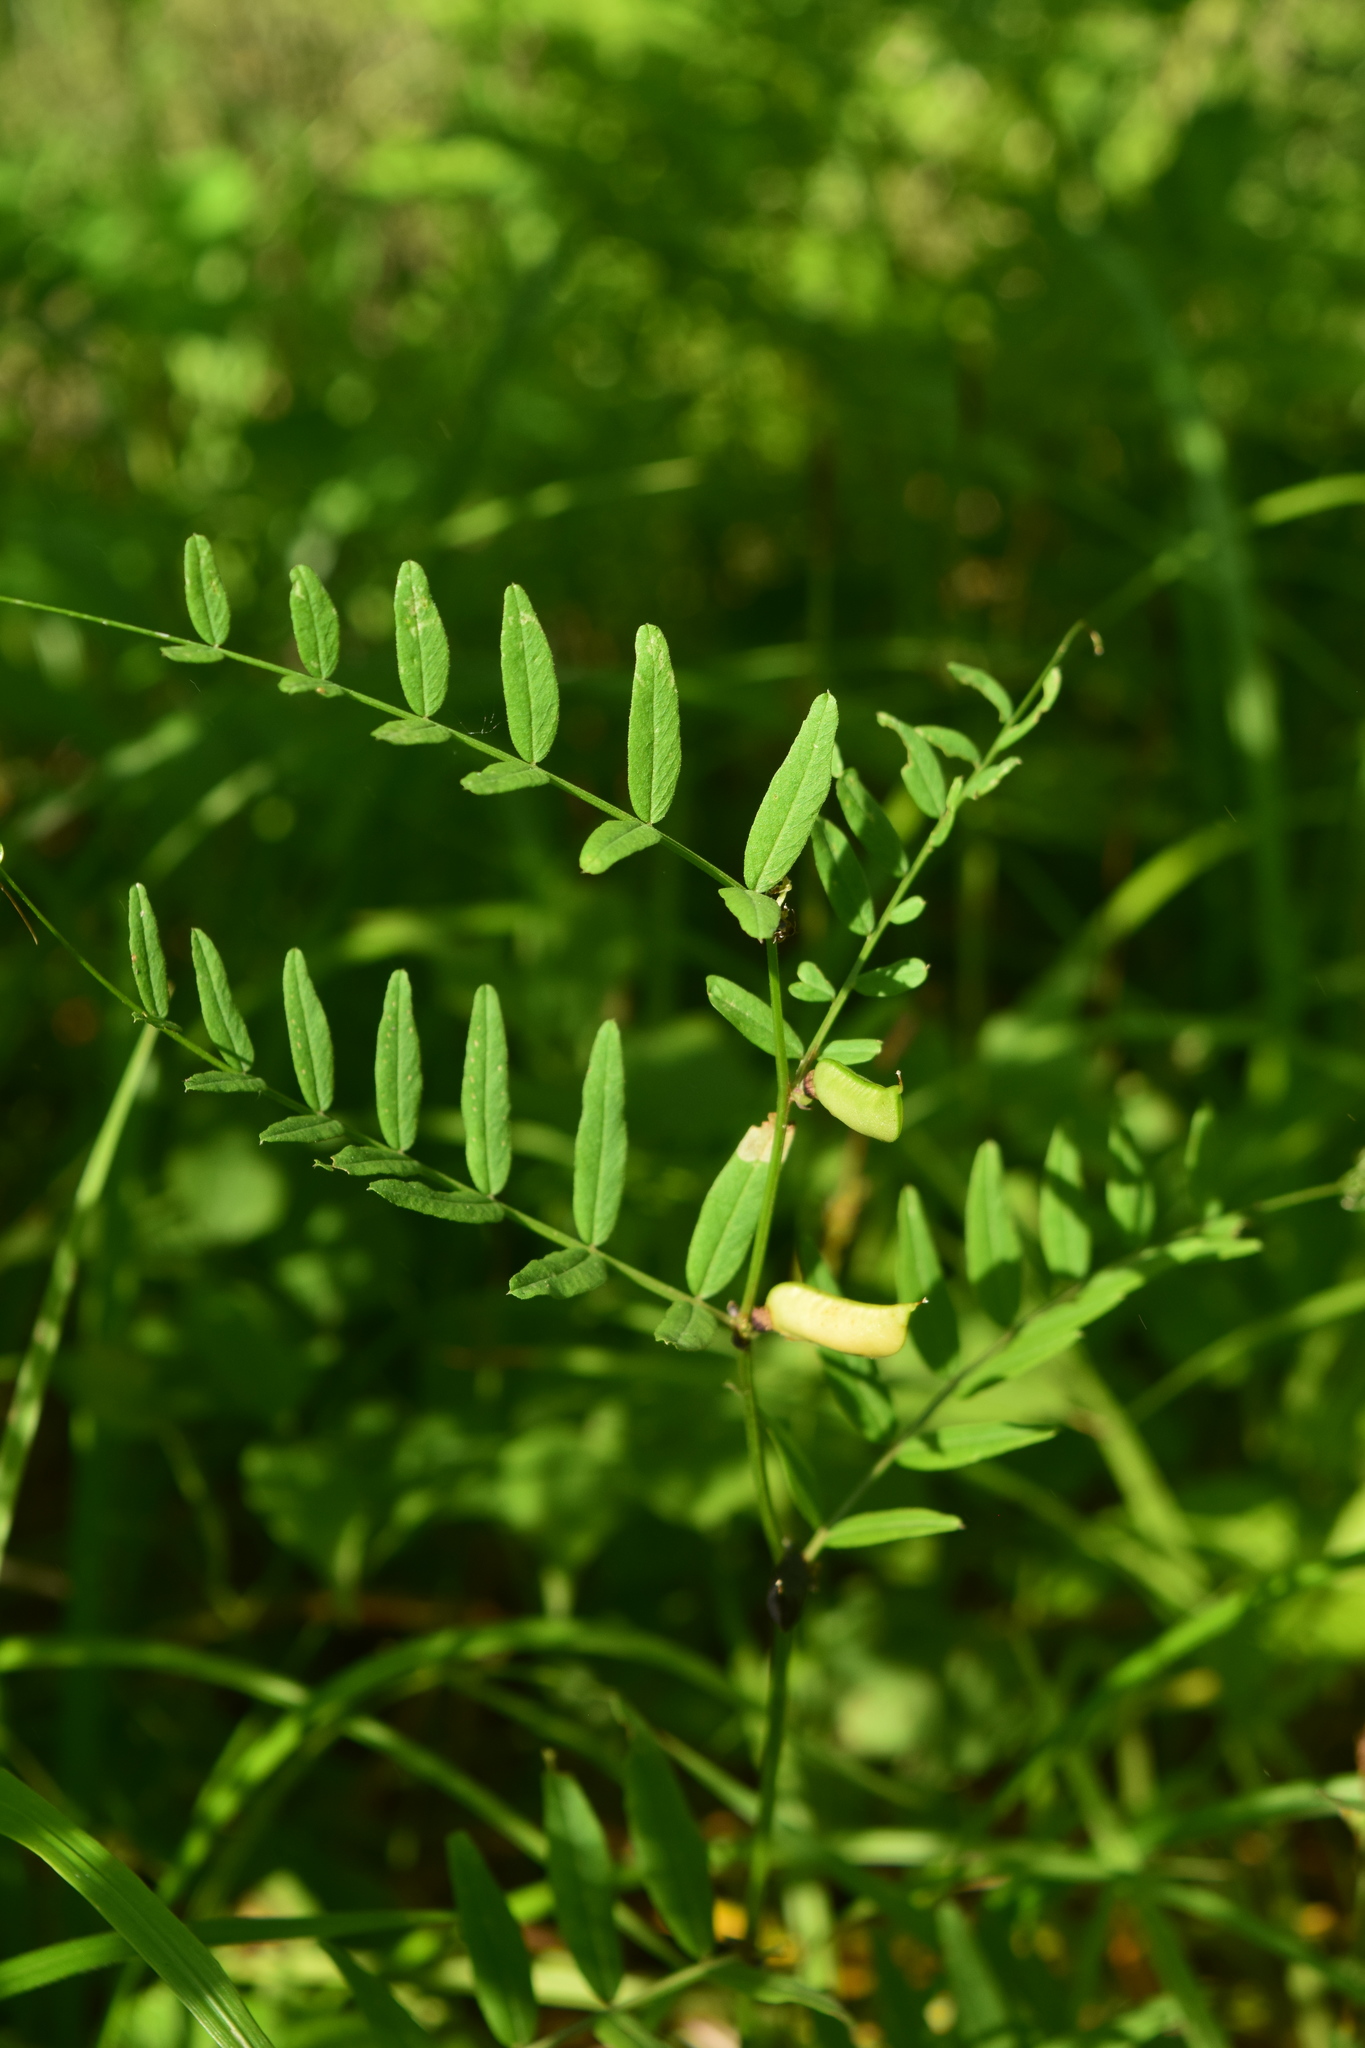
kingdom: Plantae
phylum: Tracheophyta
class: Magnoliopsida
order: Fabales
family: Fabaceae
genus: Vicia
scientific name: Vicia sepium
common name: Bush vetch
